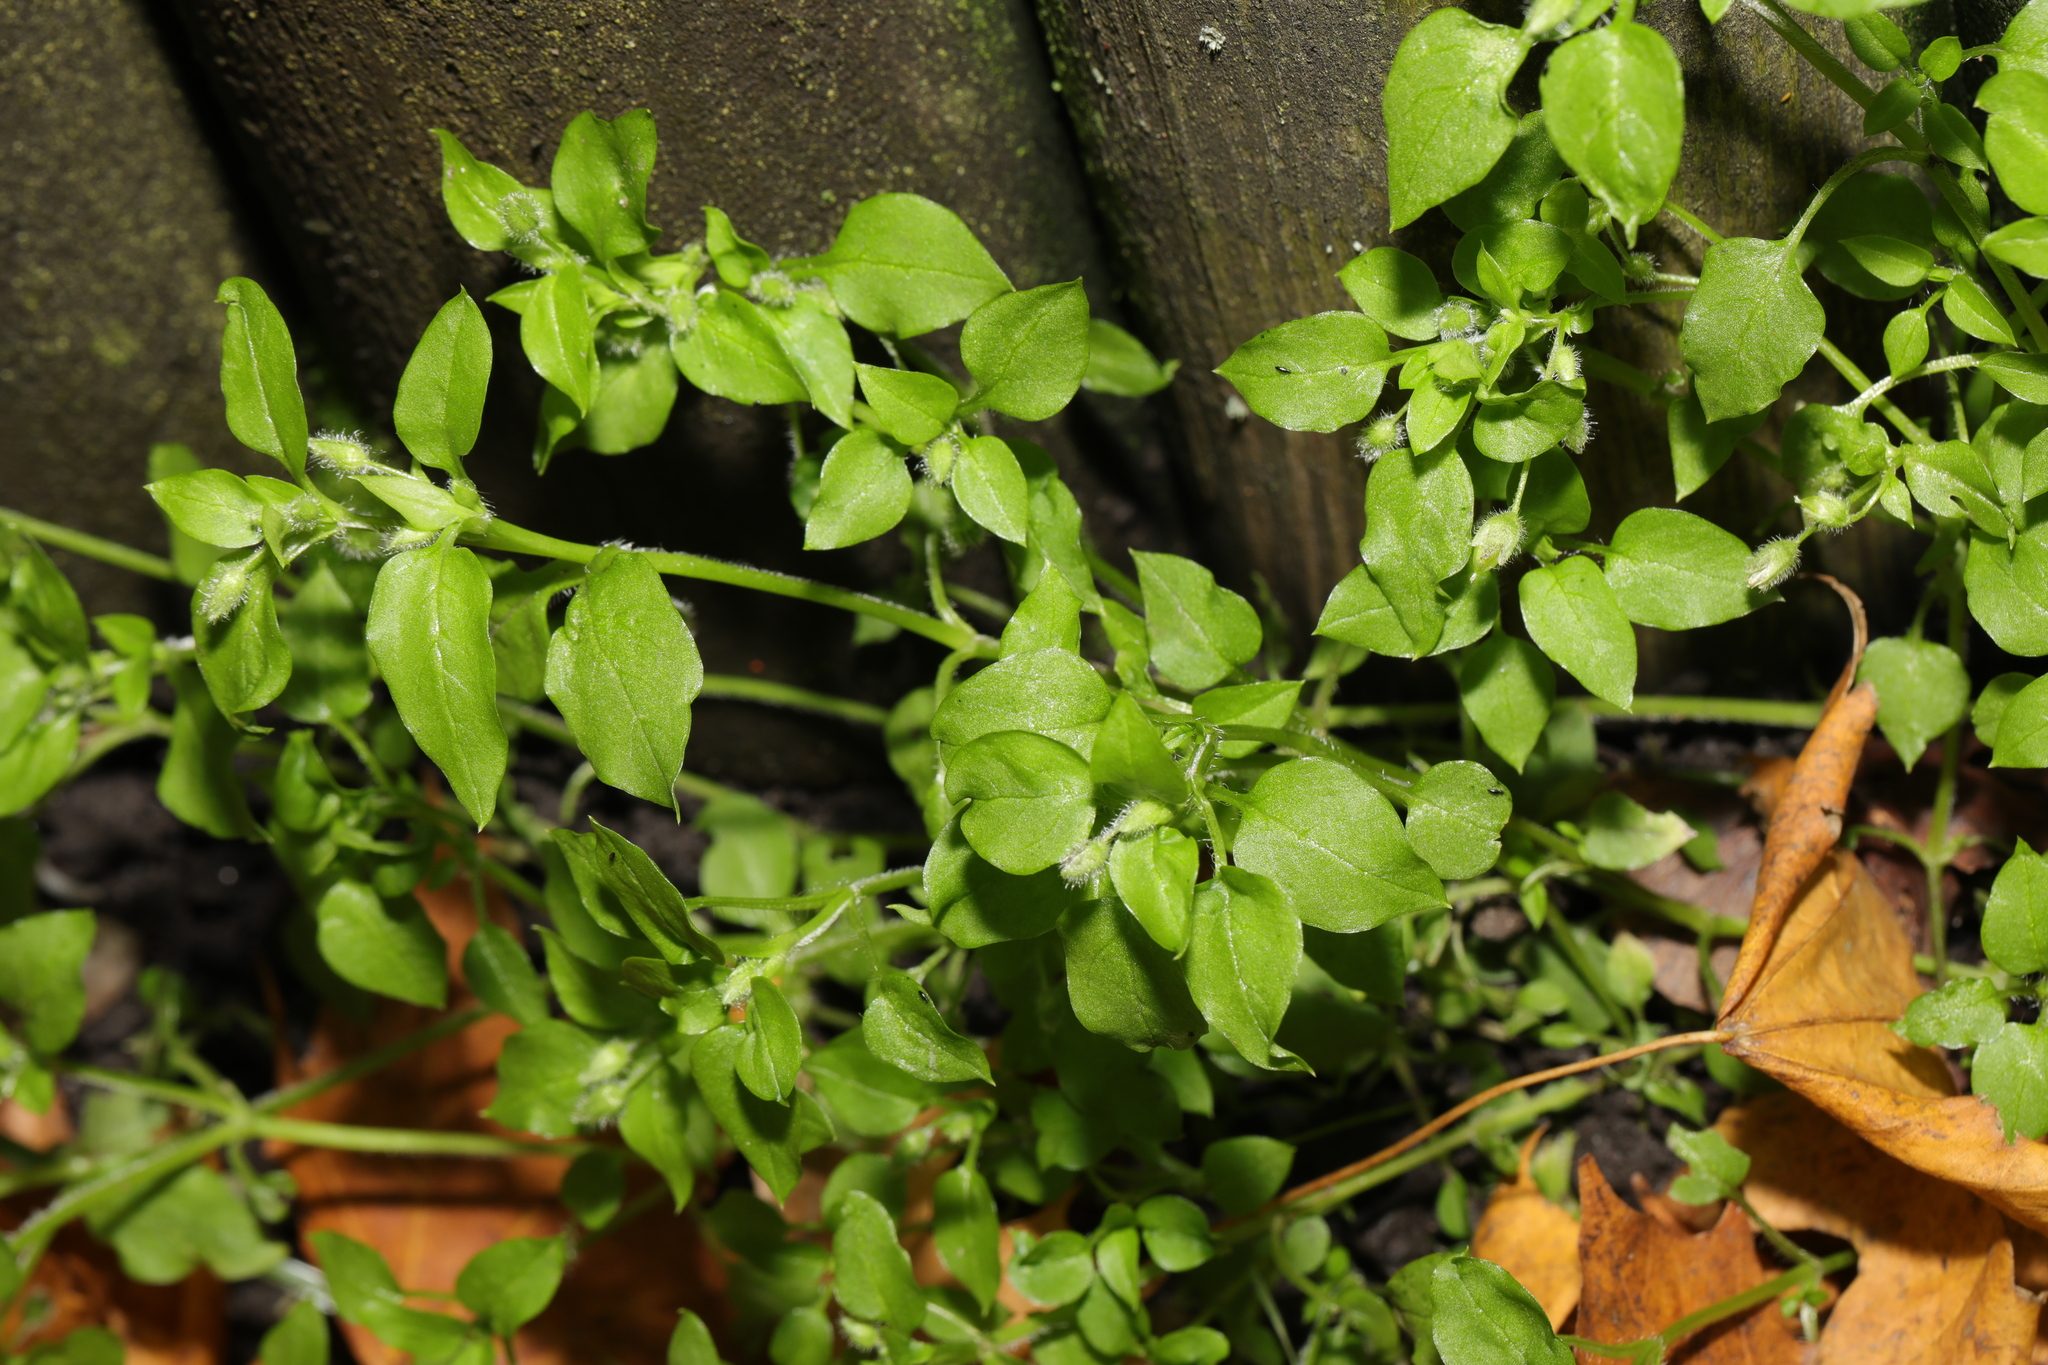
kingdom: Plantae
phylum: Tracheophyta
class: Magnoliopsida
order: Caryophyllales
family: Caryophyllaceae
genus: Stellaria
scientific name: Stellaria media
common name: Common chickweed
